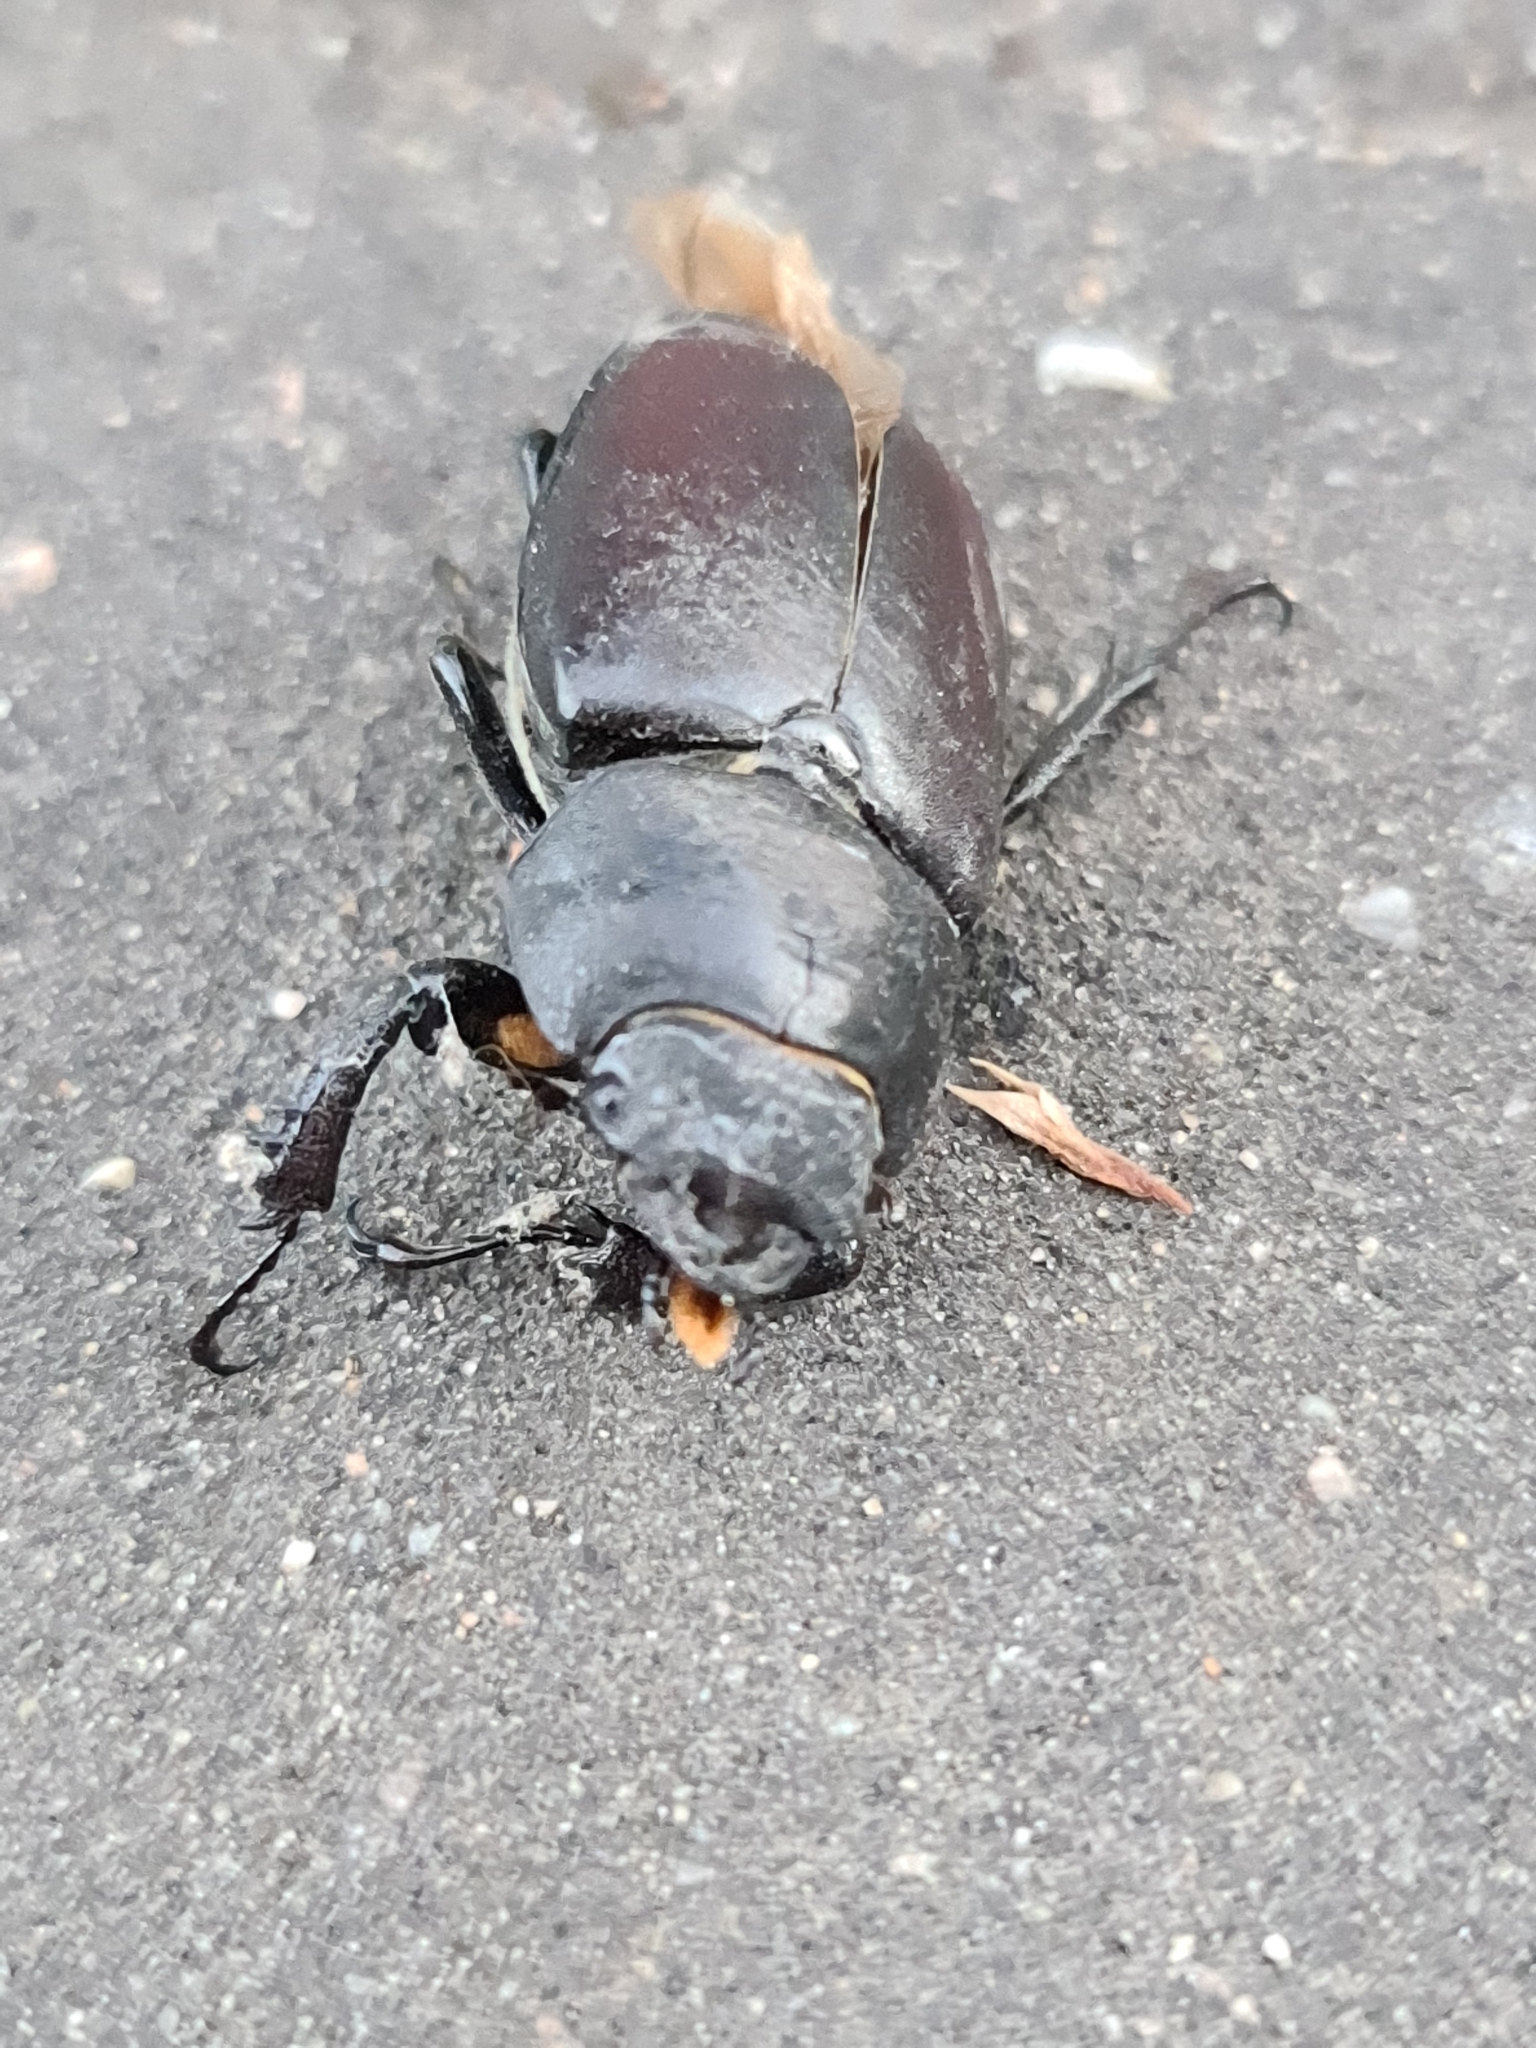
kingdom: Animalia
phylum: Arthropoda
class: Insecta
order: Coleoptera
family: Lucanidae
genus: Lucanus
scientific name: Lucanus cervus
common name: Stag beetle
